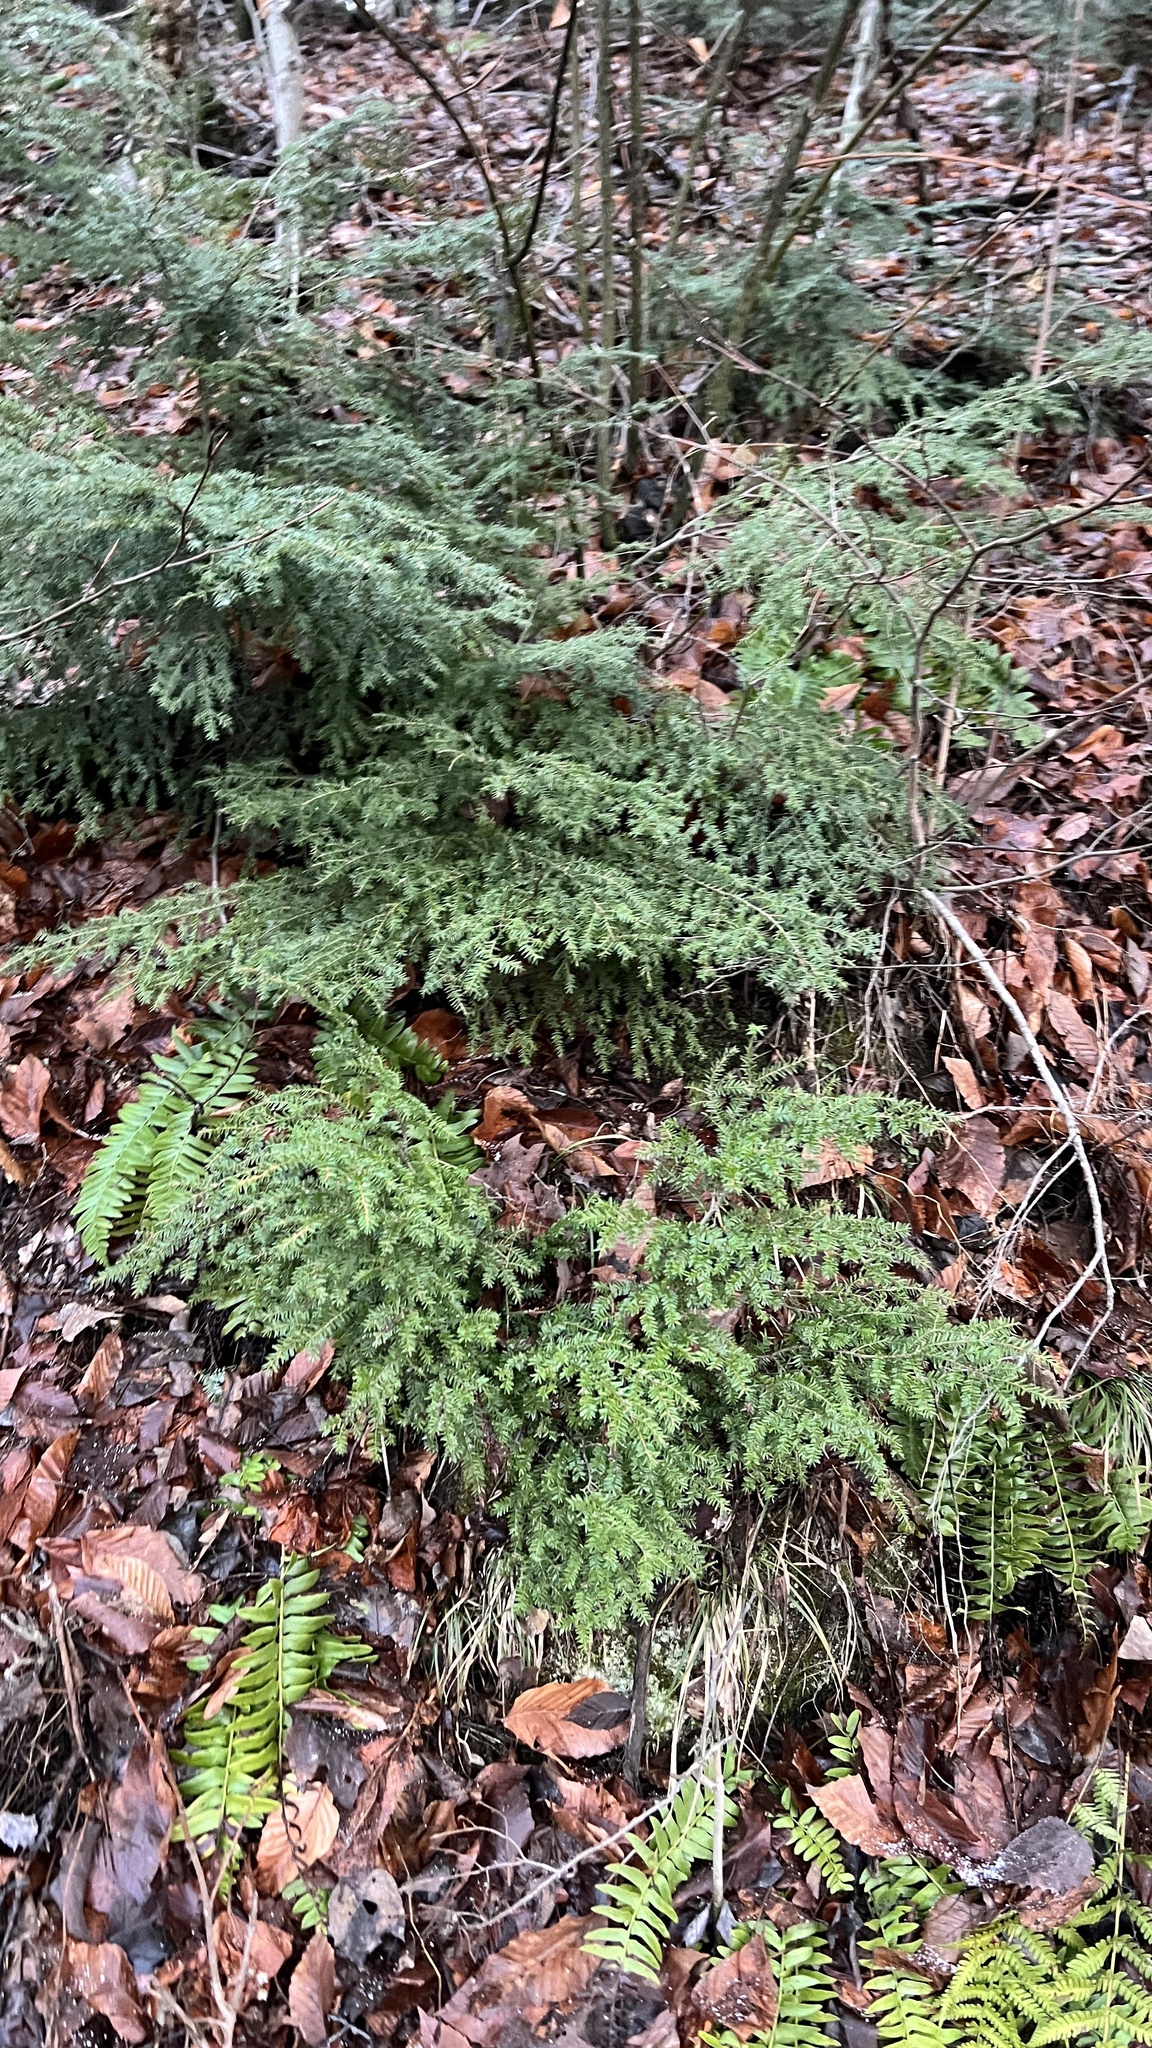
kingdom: Plantae
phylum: Tracheophyta
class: Pinopsida
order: Pinales
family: Pinaceae
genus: Tsuga
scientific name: Tsuga canadensis
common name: Eastern hemlock
